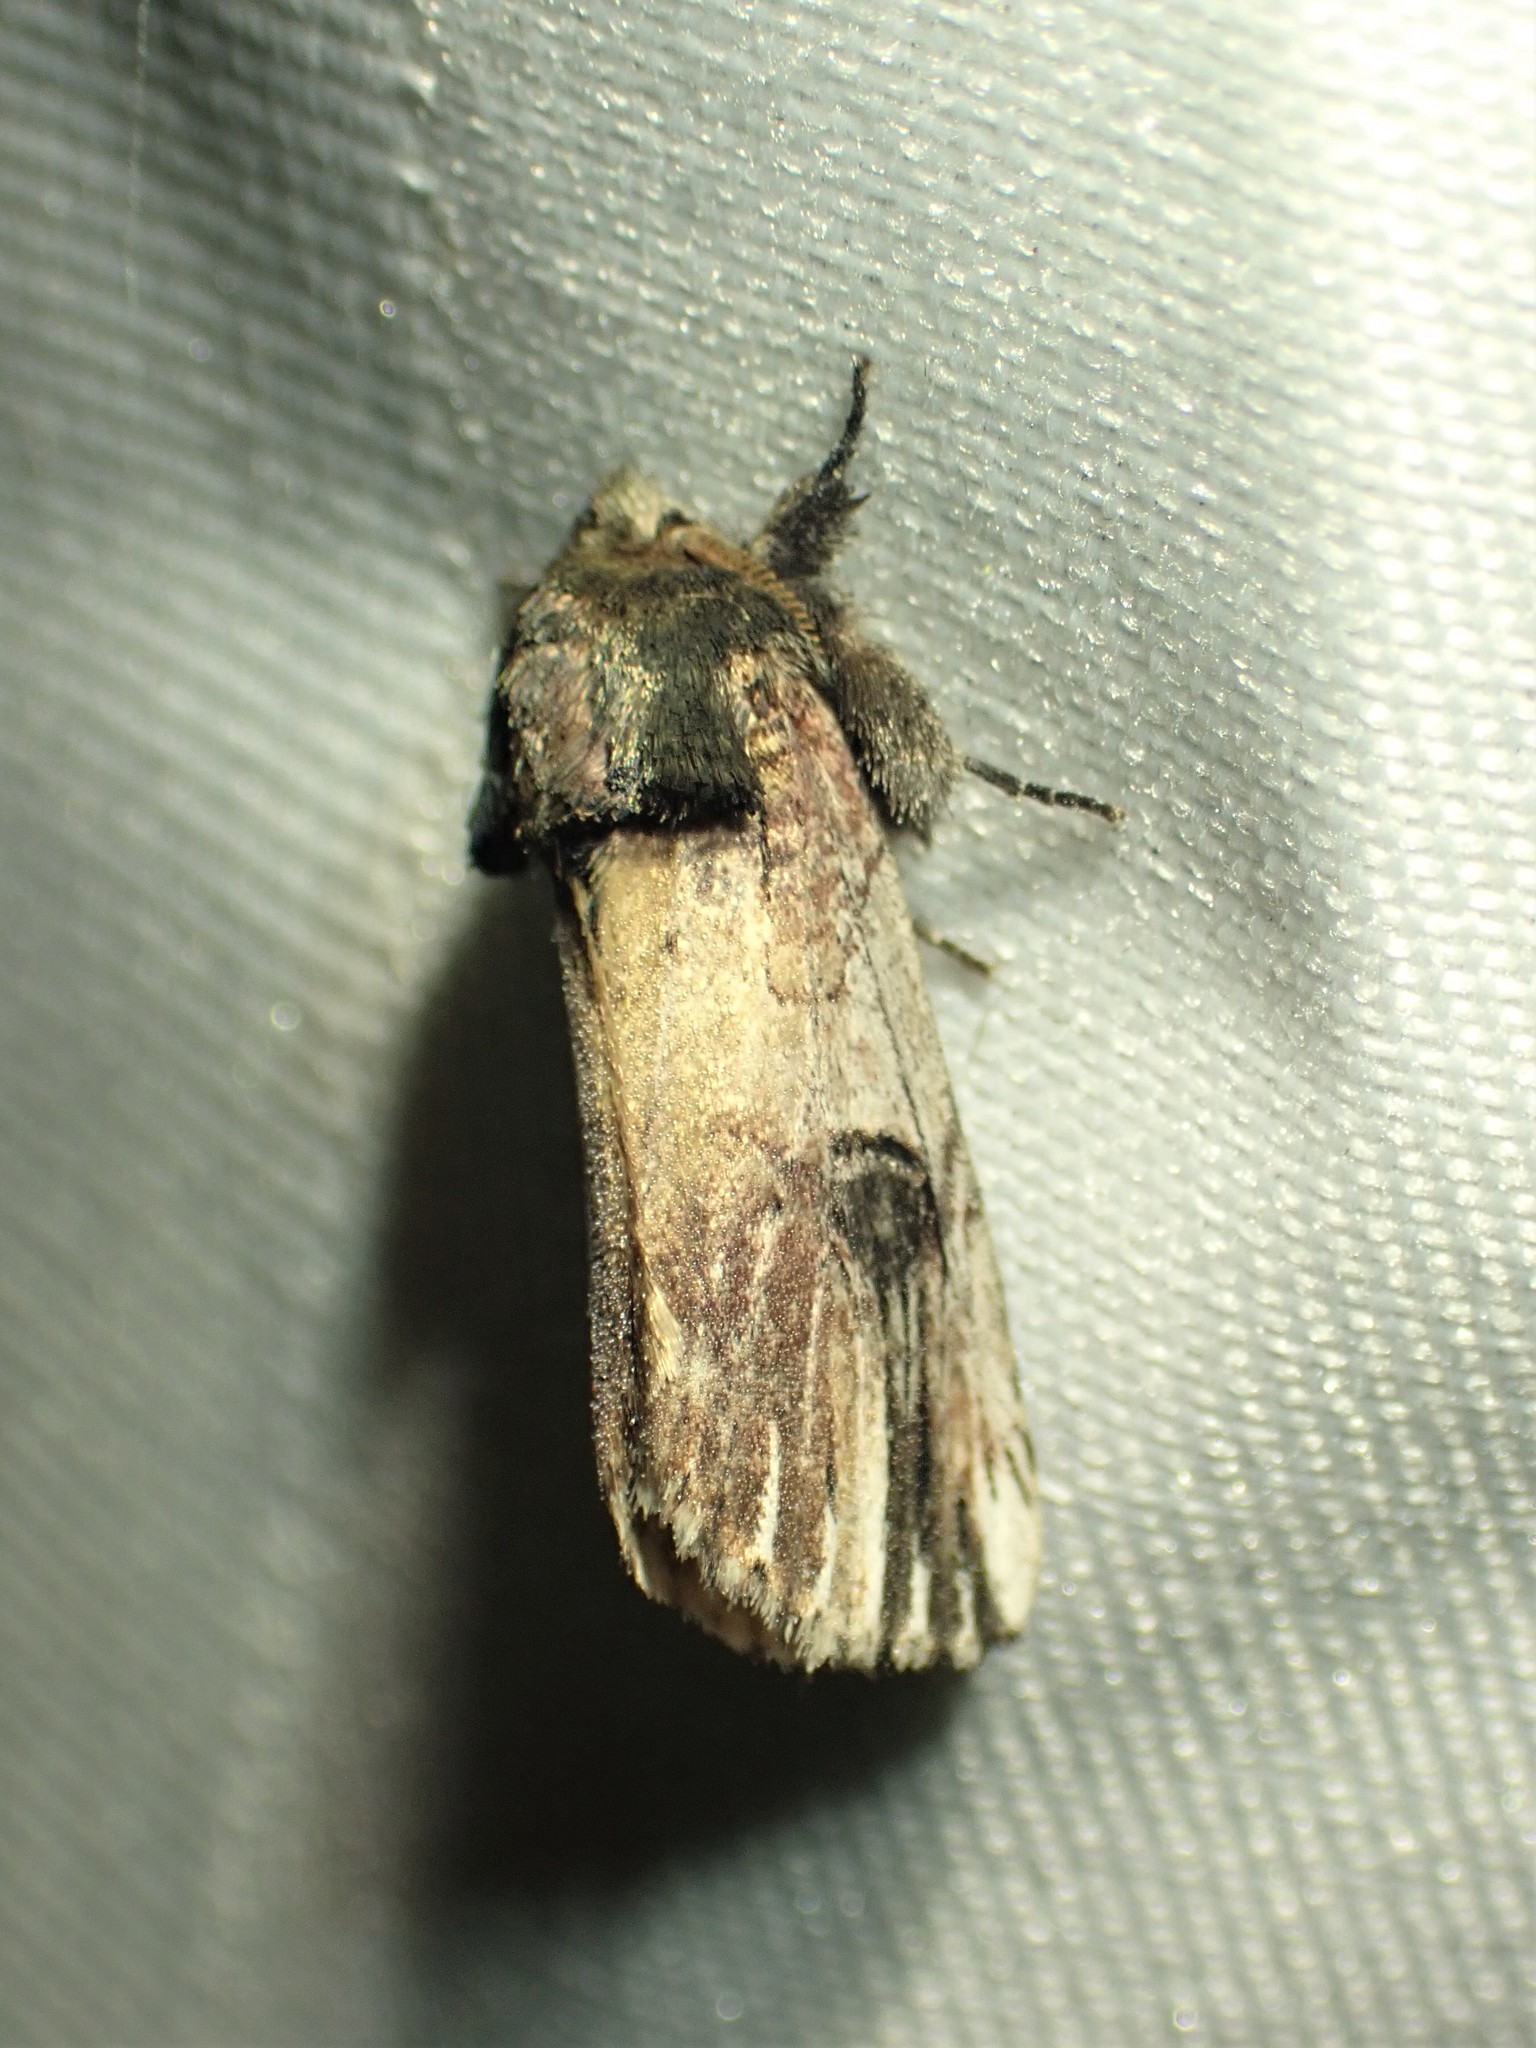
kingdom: Animalia
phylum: Arthropoda
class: Insecta
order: Lepidoptera
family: Notodontidae
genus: Schizura
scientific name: Schizura badia
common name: Chestnut schizura
